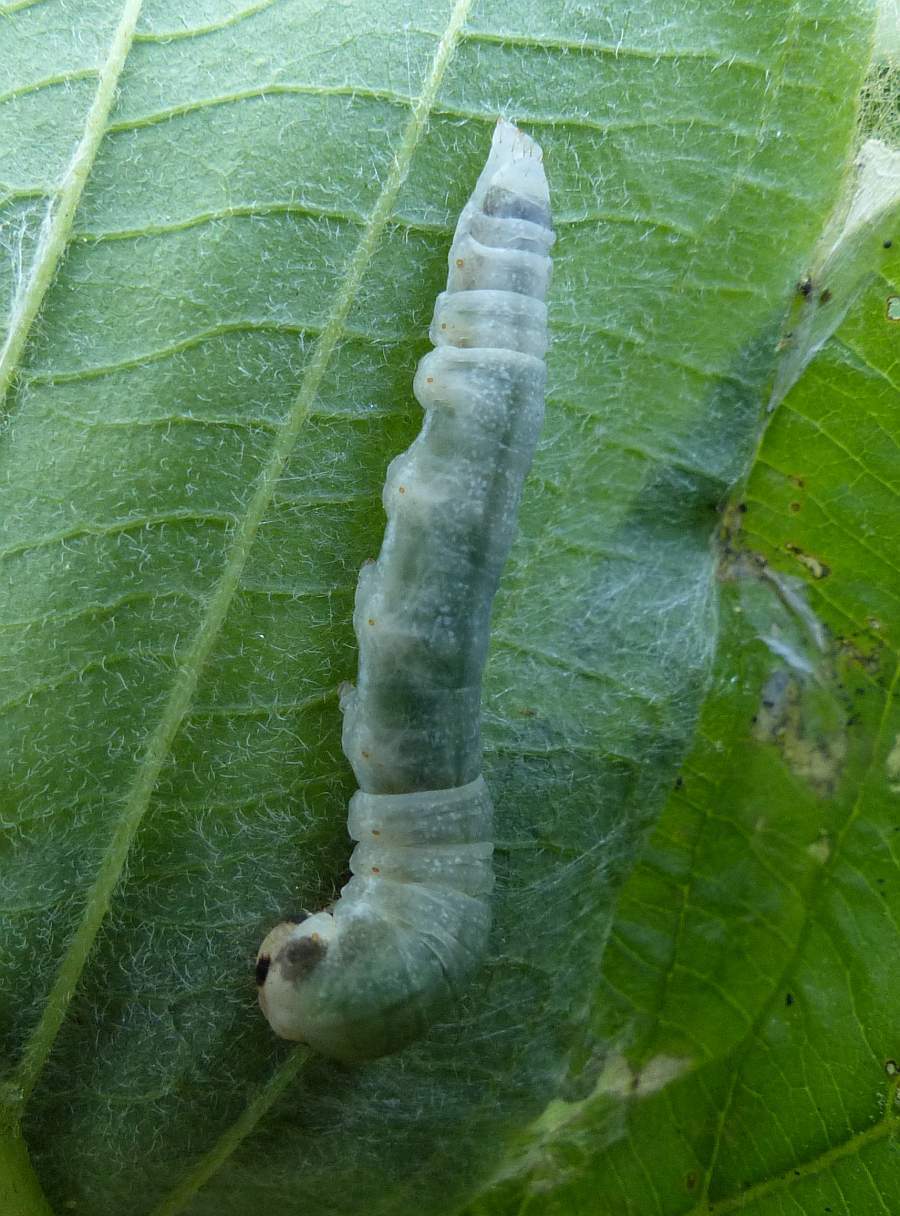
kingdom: Animalia
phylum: Arthropoda
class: Insecta
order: Lepidoptera
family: Drepanidae
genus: Euthyatira
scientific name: Euthyatira pudens
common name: Dogwood thyatirid moth
